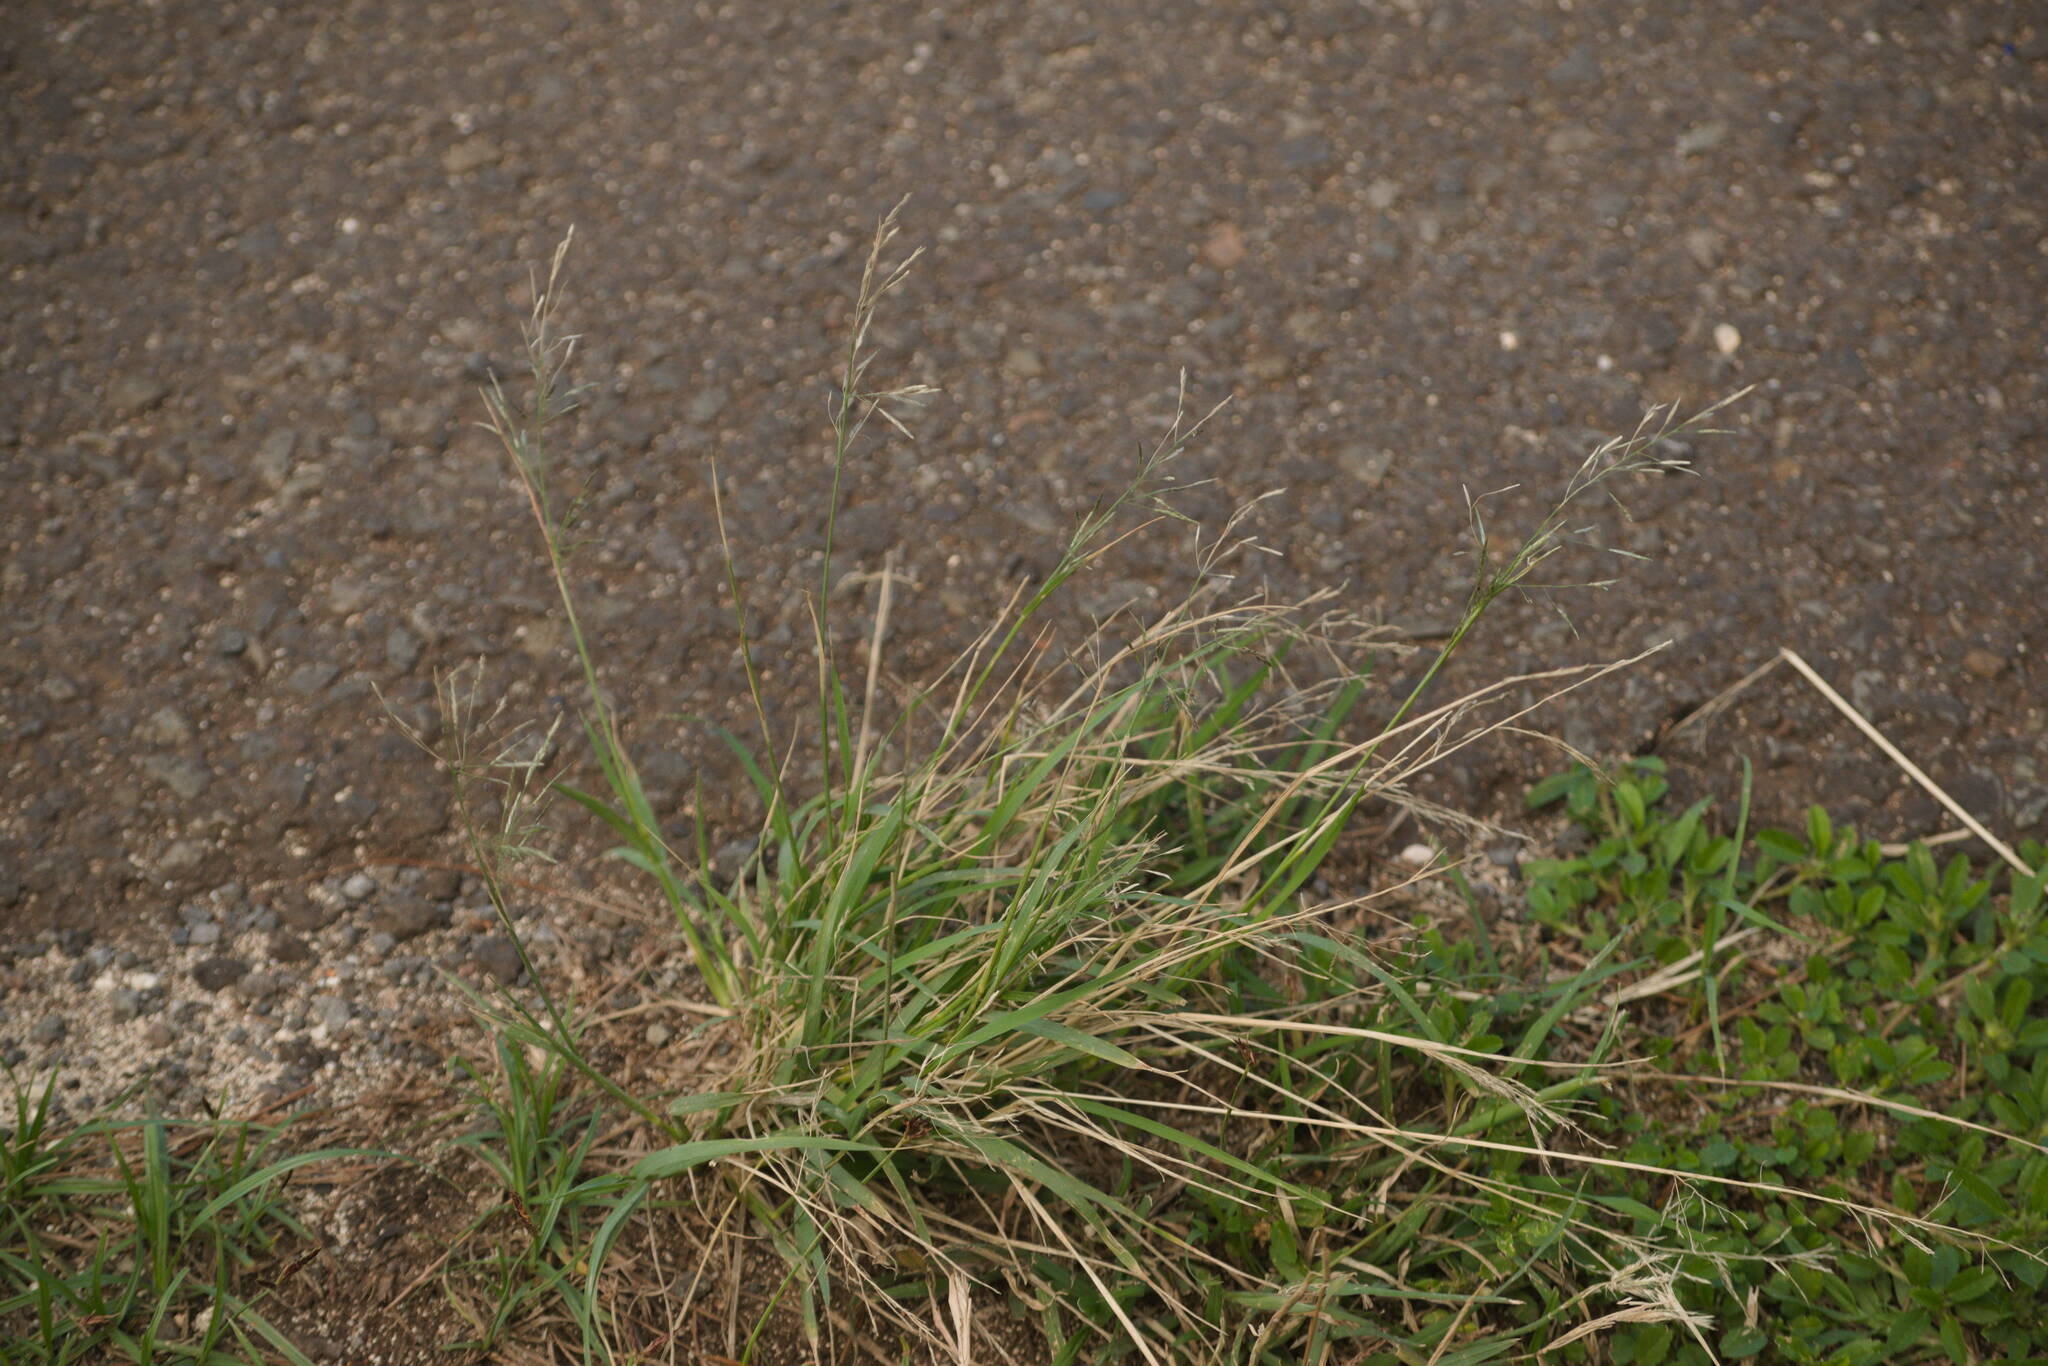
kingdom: Plantae
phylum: Tracheophyta
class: Liliopsida
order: Poales
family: Poaceae
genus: Eragrostis
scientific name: Eragrostis tenuifolia
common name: Elastic grass
